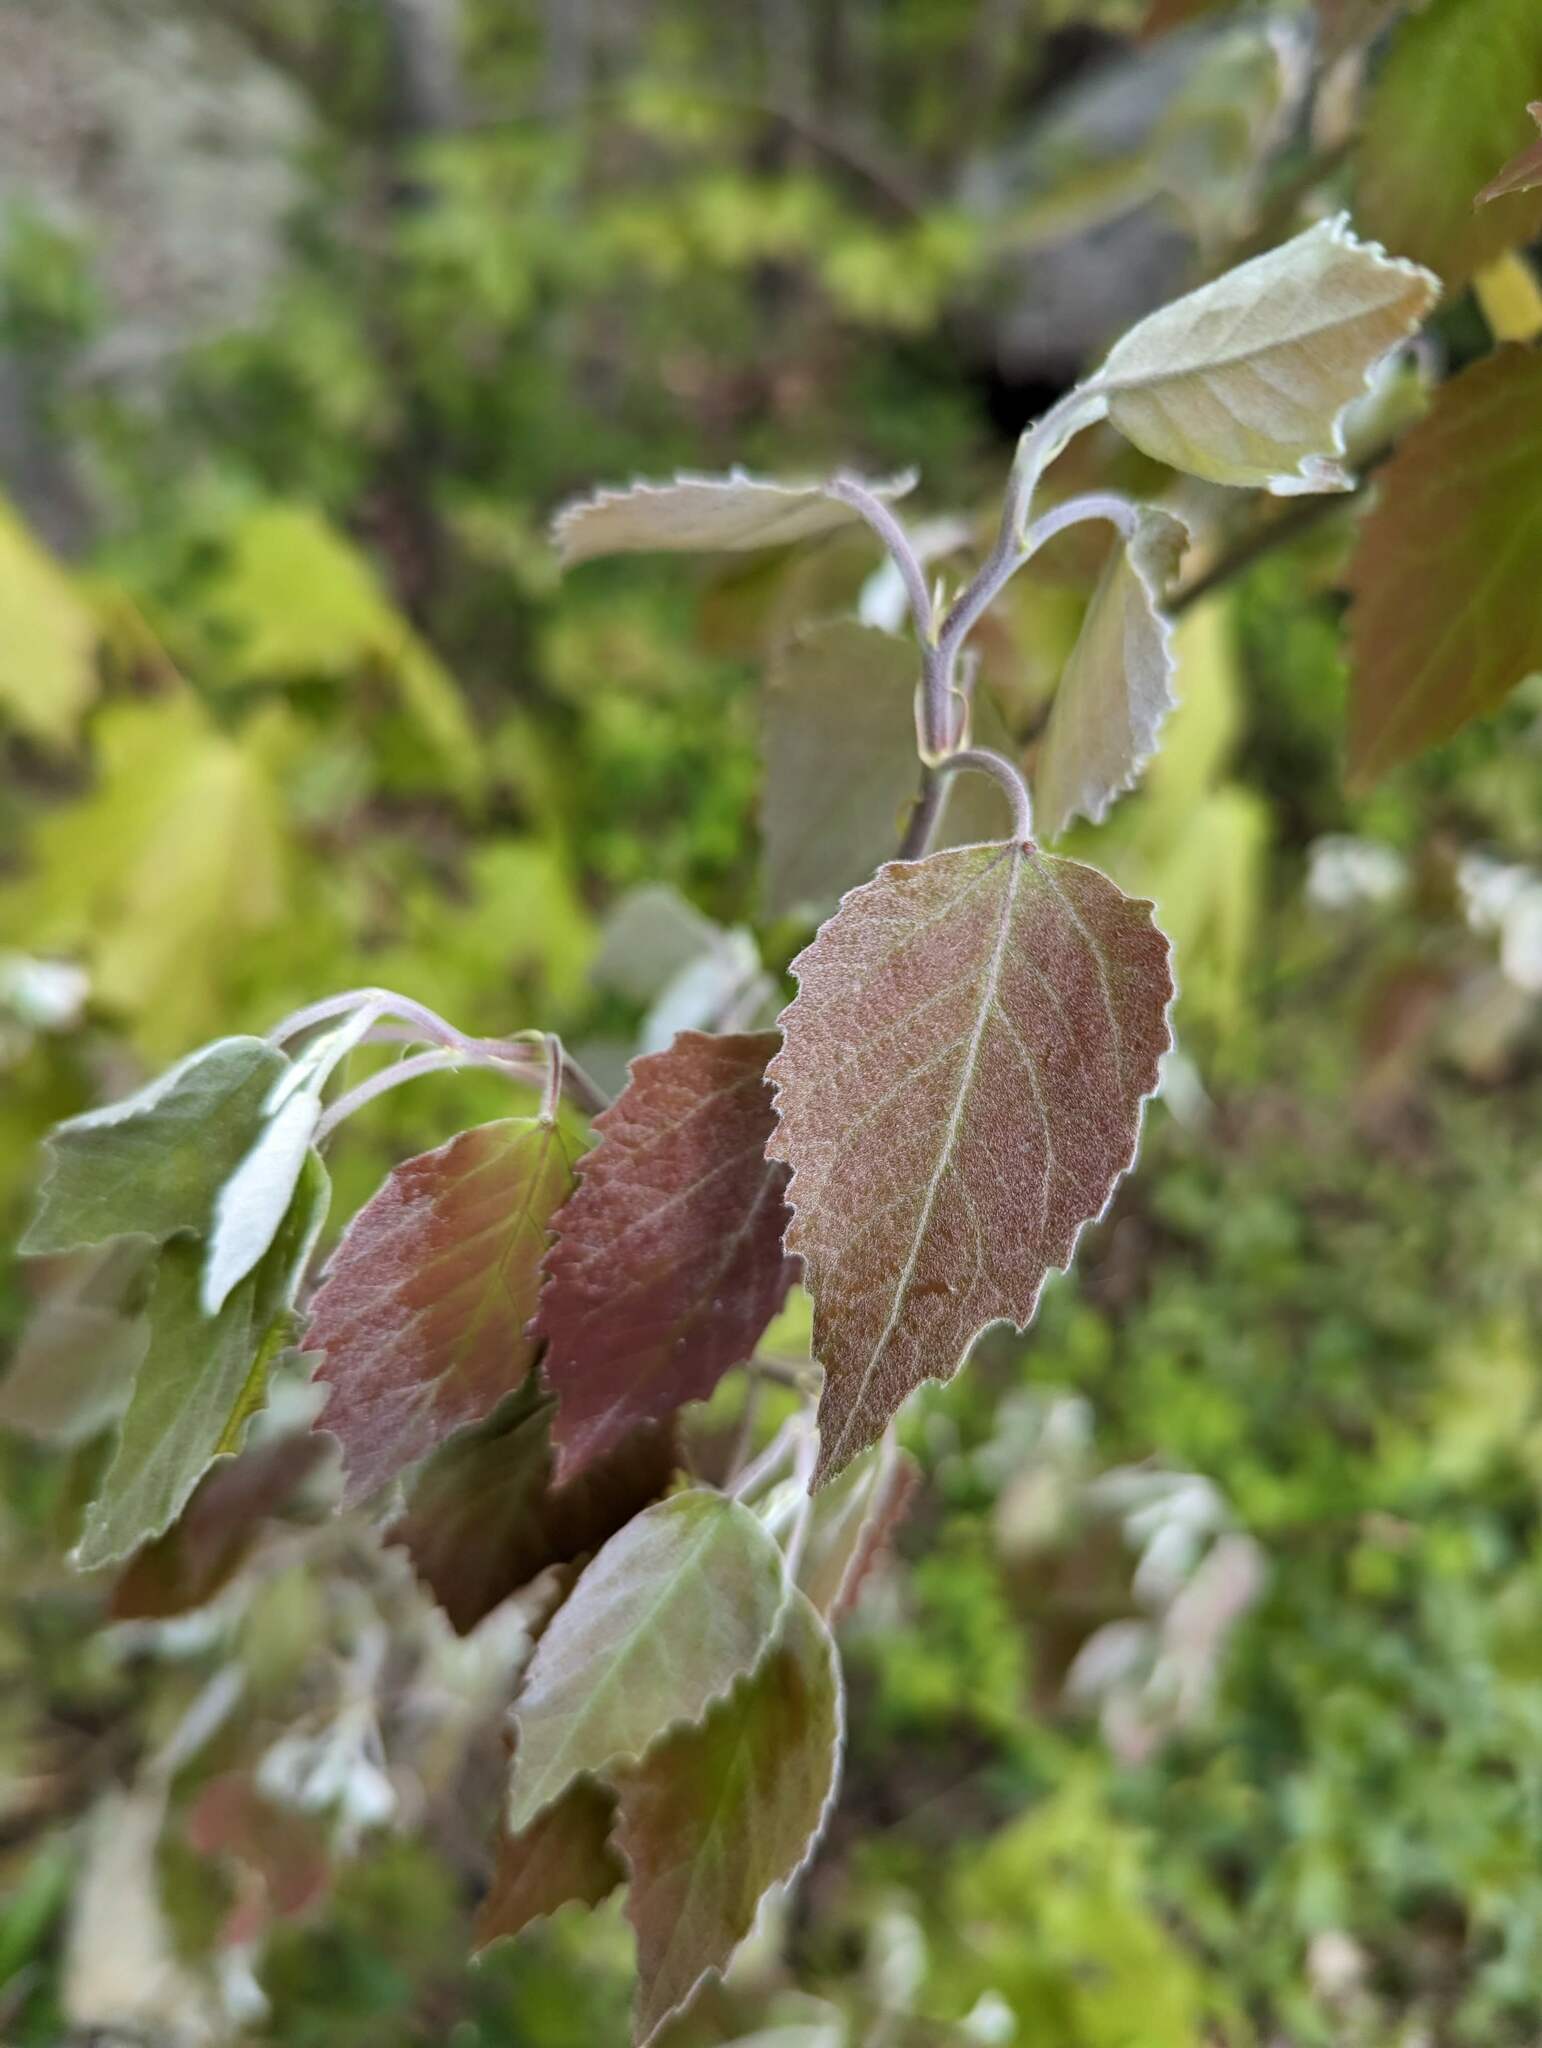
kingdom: Plantae
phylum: Tracheophyta
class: Magnoliopsida
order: Malpighiales
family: Salicaceae
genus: Populus
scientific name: Populus grandidentata
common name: Bigtooth aspen
